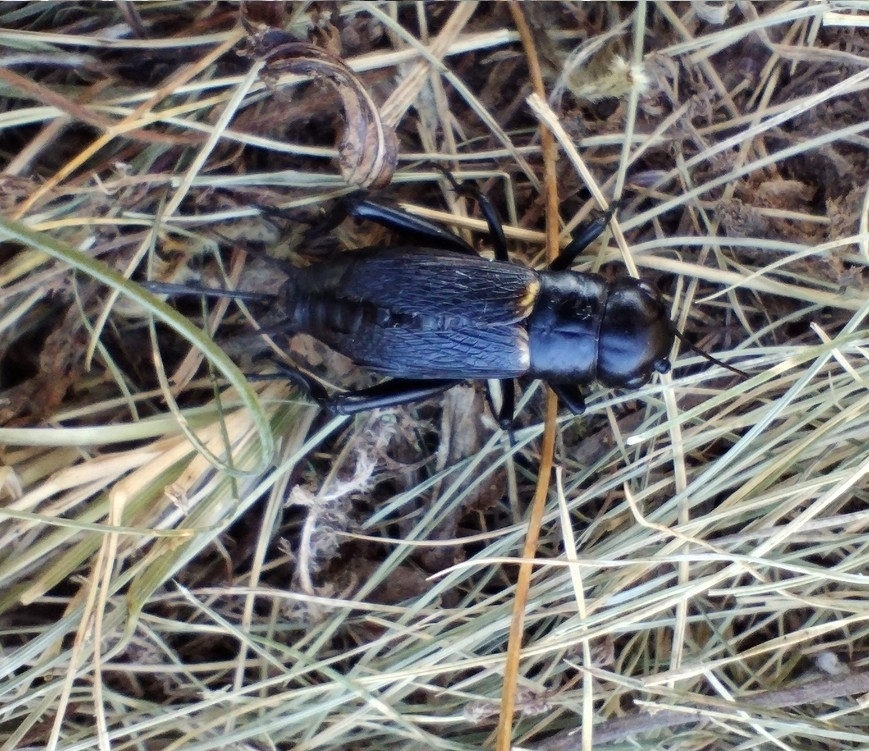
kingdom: Animalia
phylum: Arthropoda
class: Insecta
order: Orthoptera
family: Gryllidae
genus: Gryllus
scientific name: Gryllus campestris
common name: Field cricket
